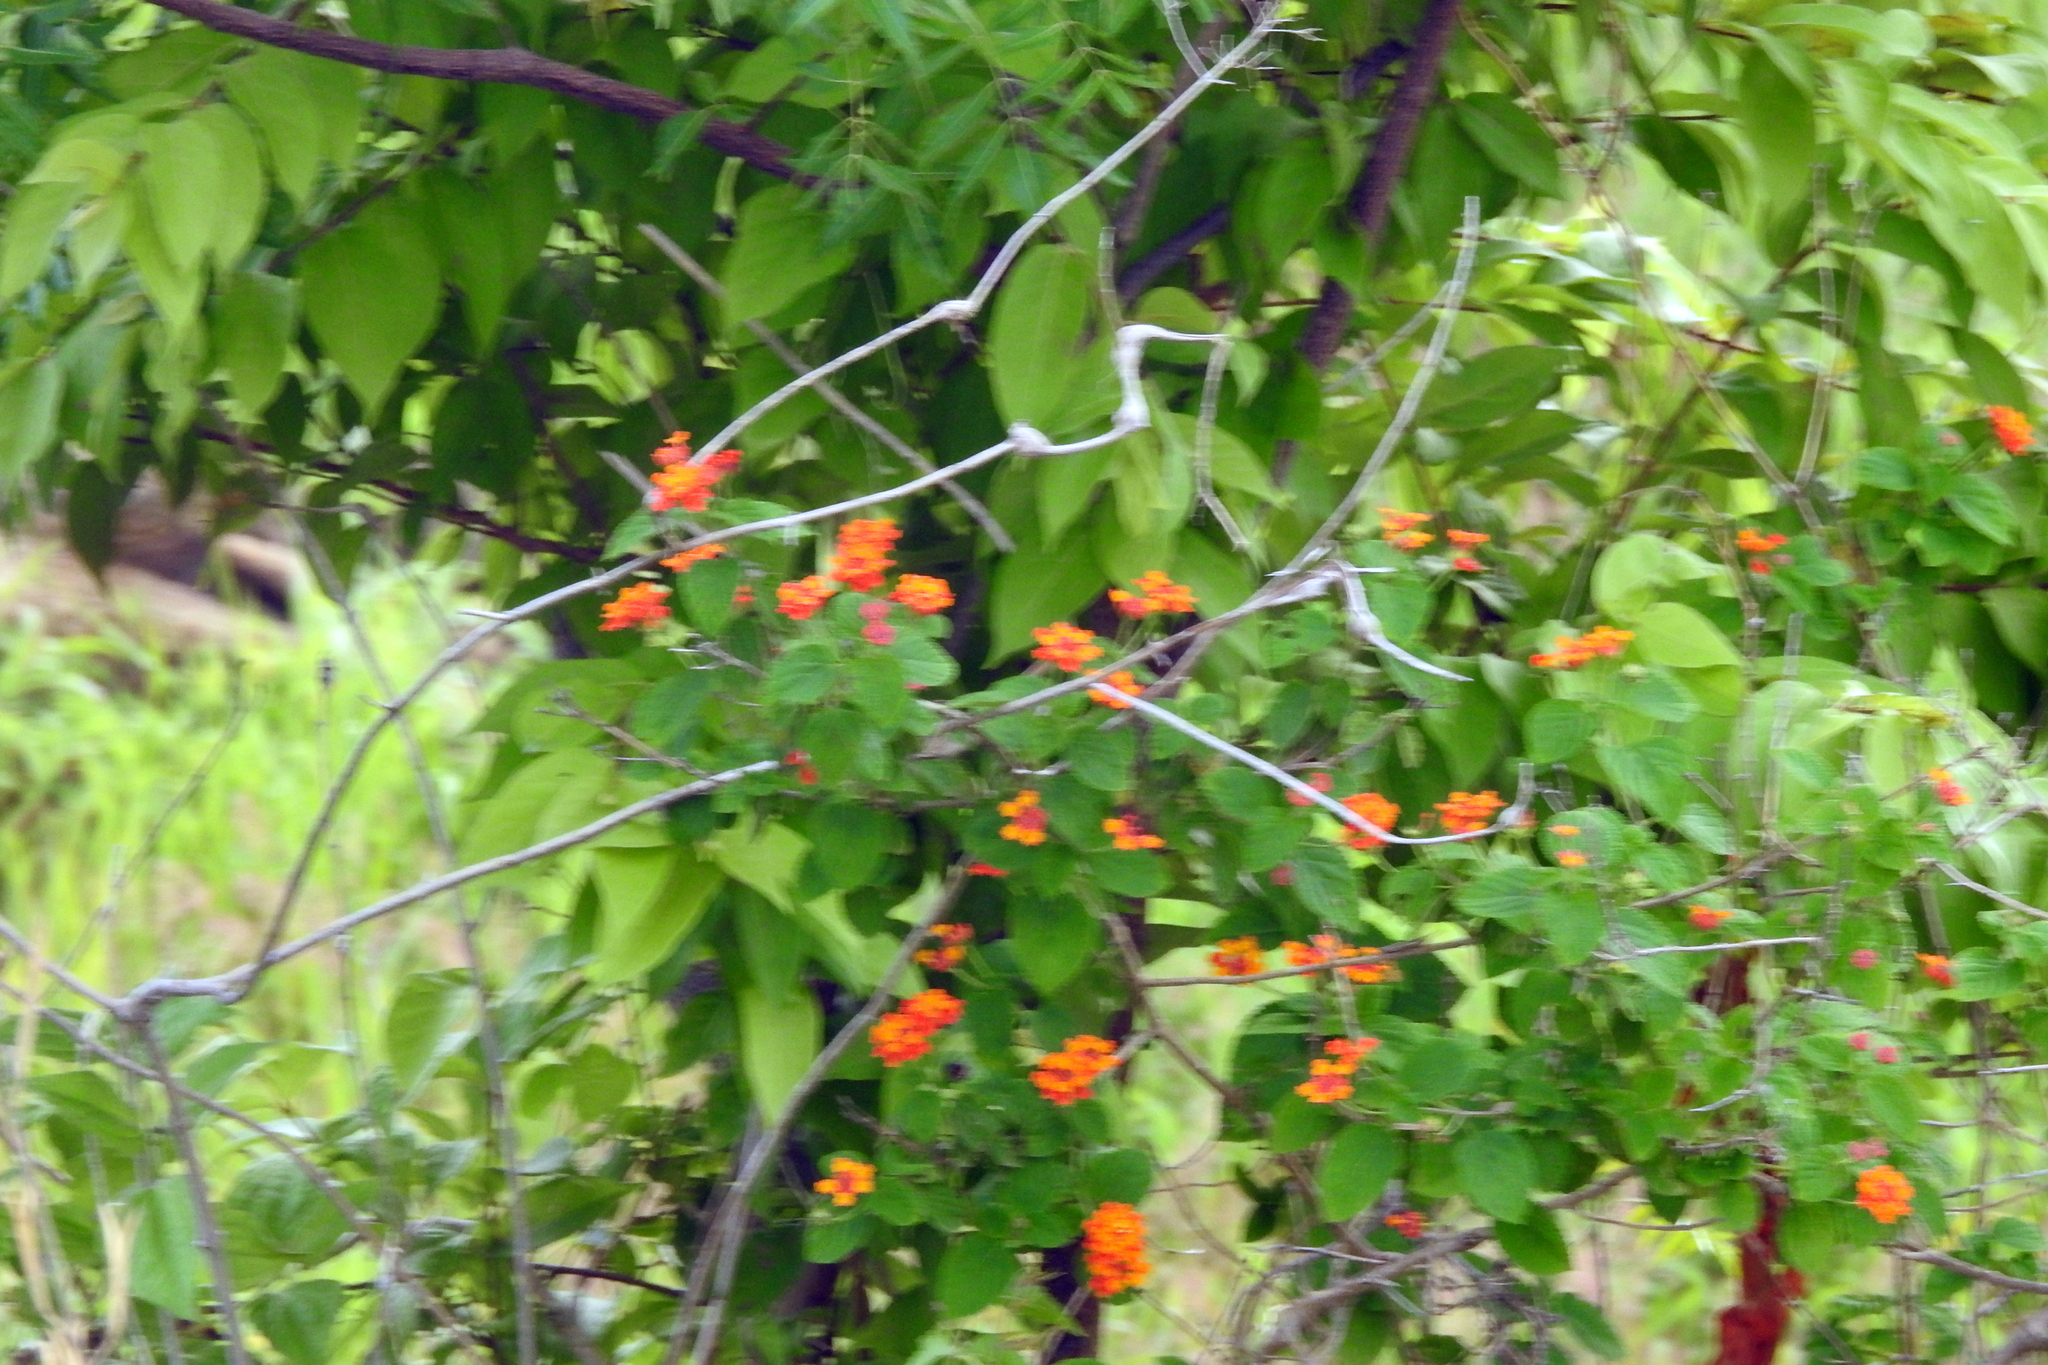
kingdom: Plantae
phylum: Tracheophyta
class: Magnoliopsida
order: Lamiales
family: Verbenaceae
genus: Lantana
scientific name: Lantana camara
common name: Lantana
